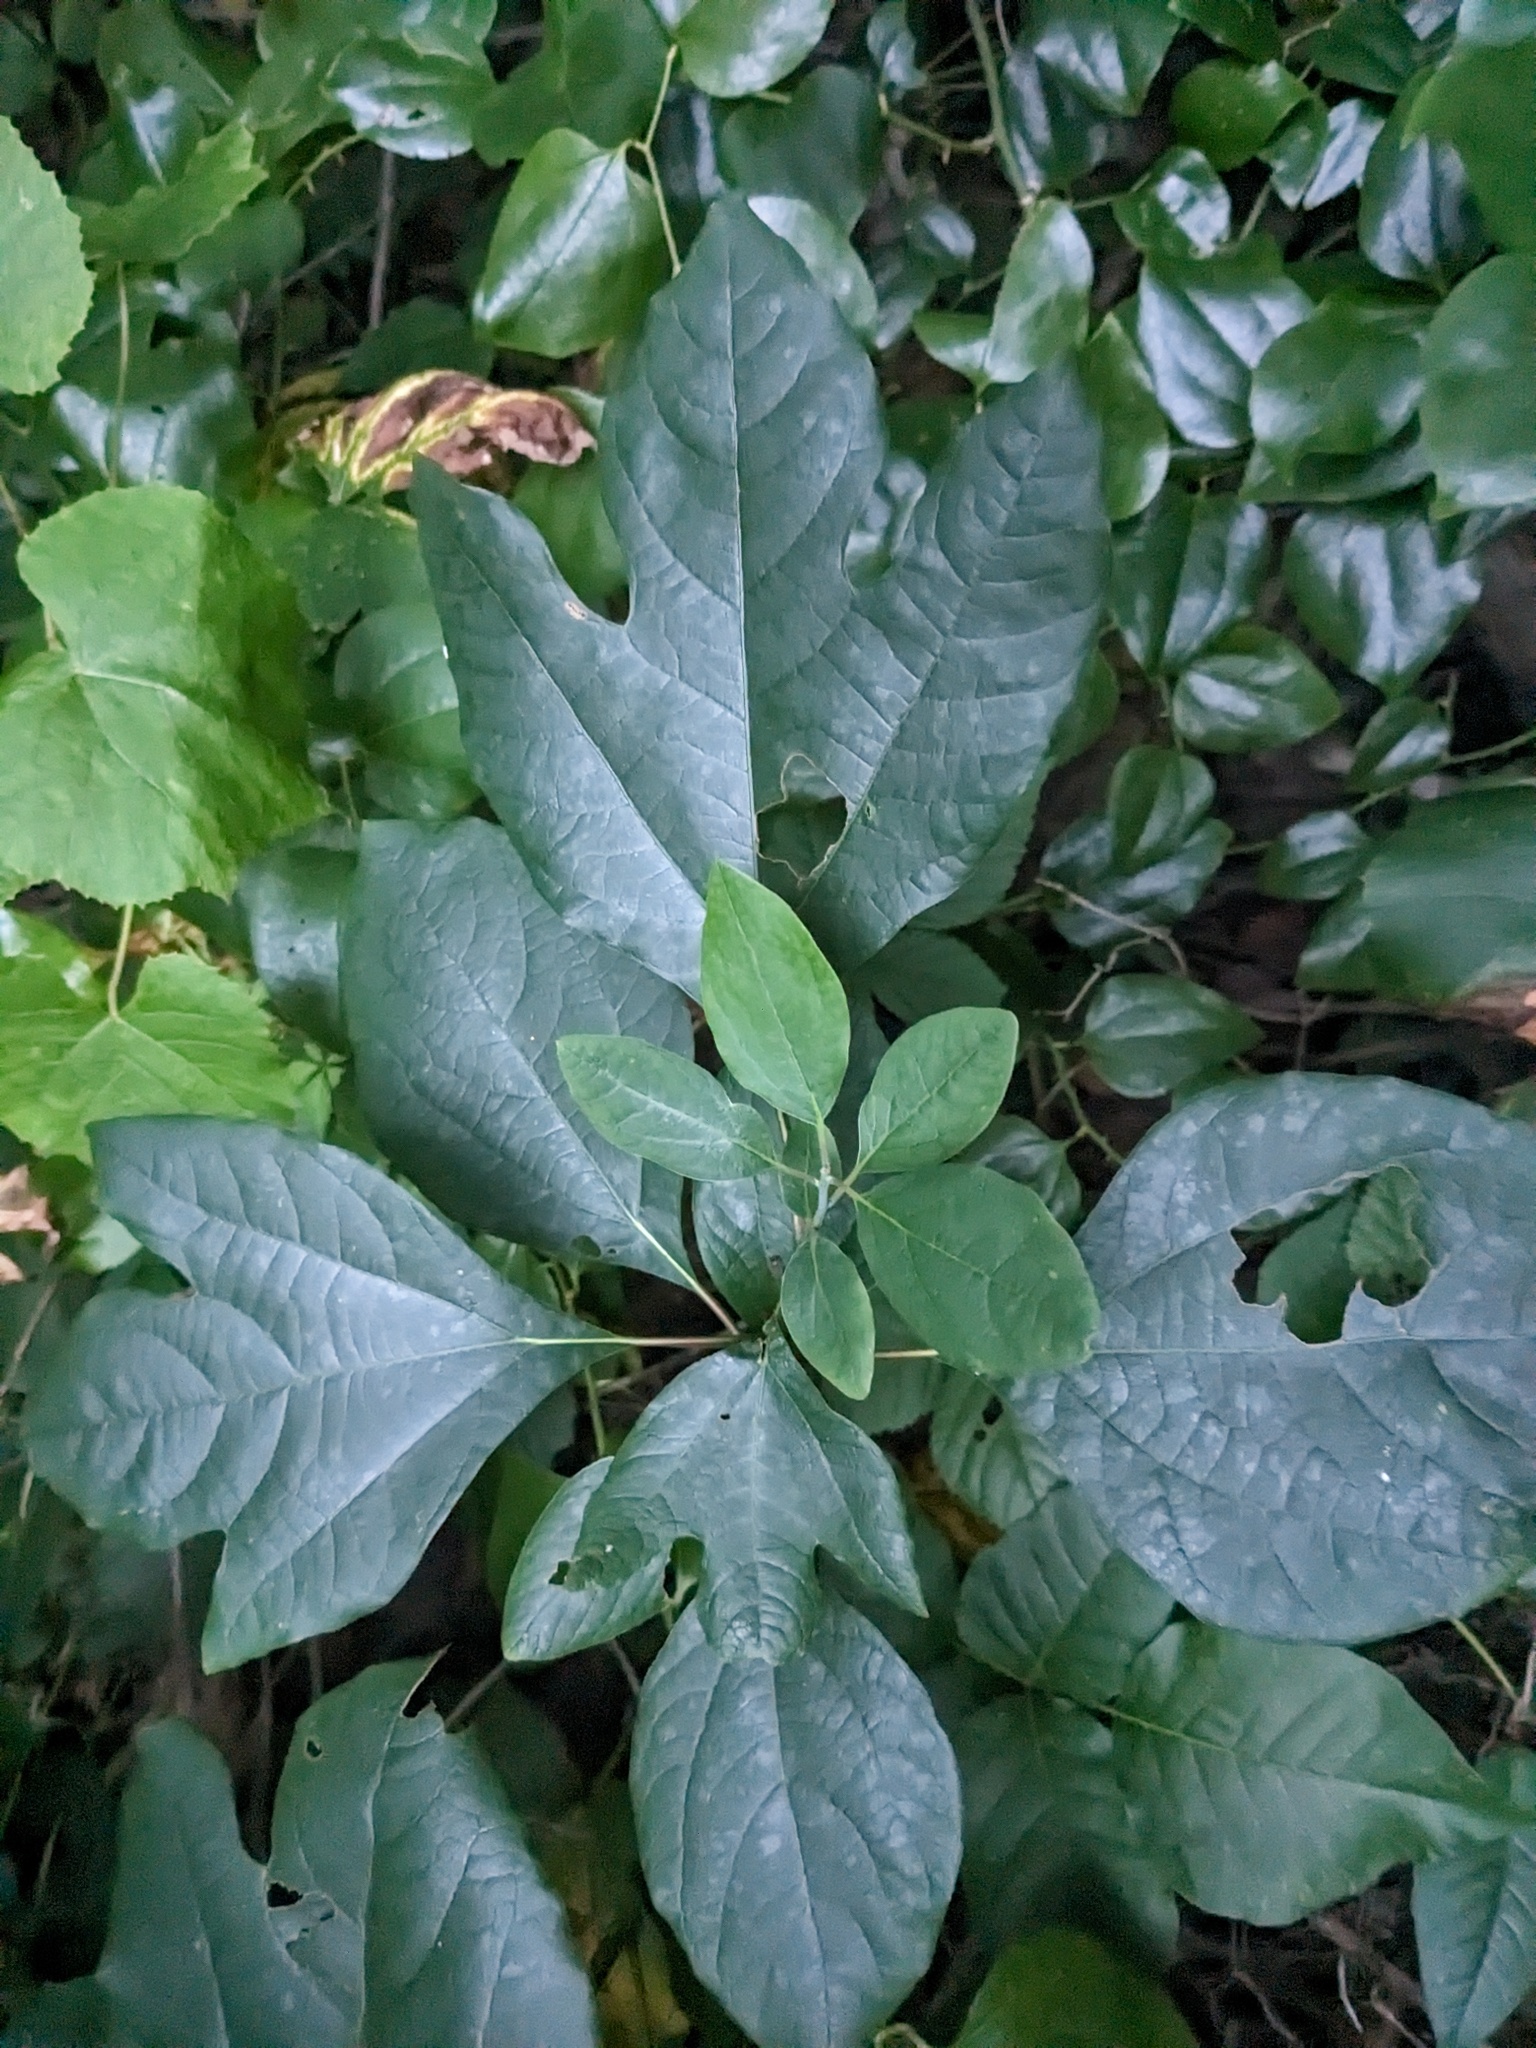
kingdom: Plantae
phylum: Tracheophyta
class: Magnoliopsida
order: Laurales
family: Lauraceae
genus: Sassafras
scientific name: Sassafras albidum
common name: Sassafras
